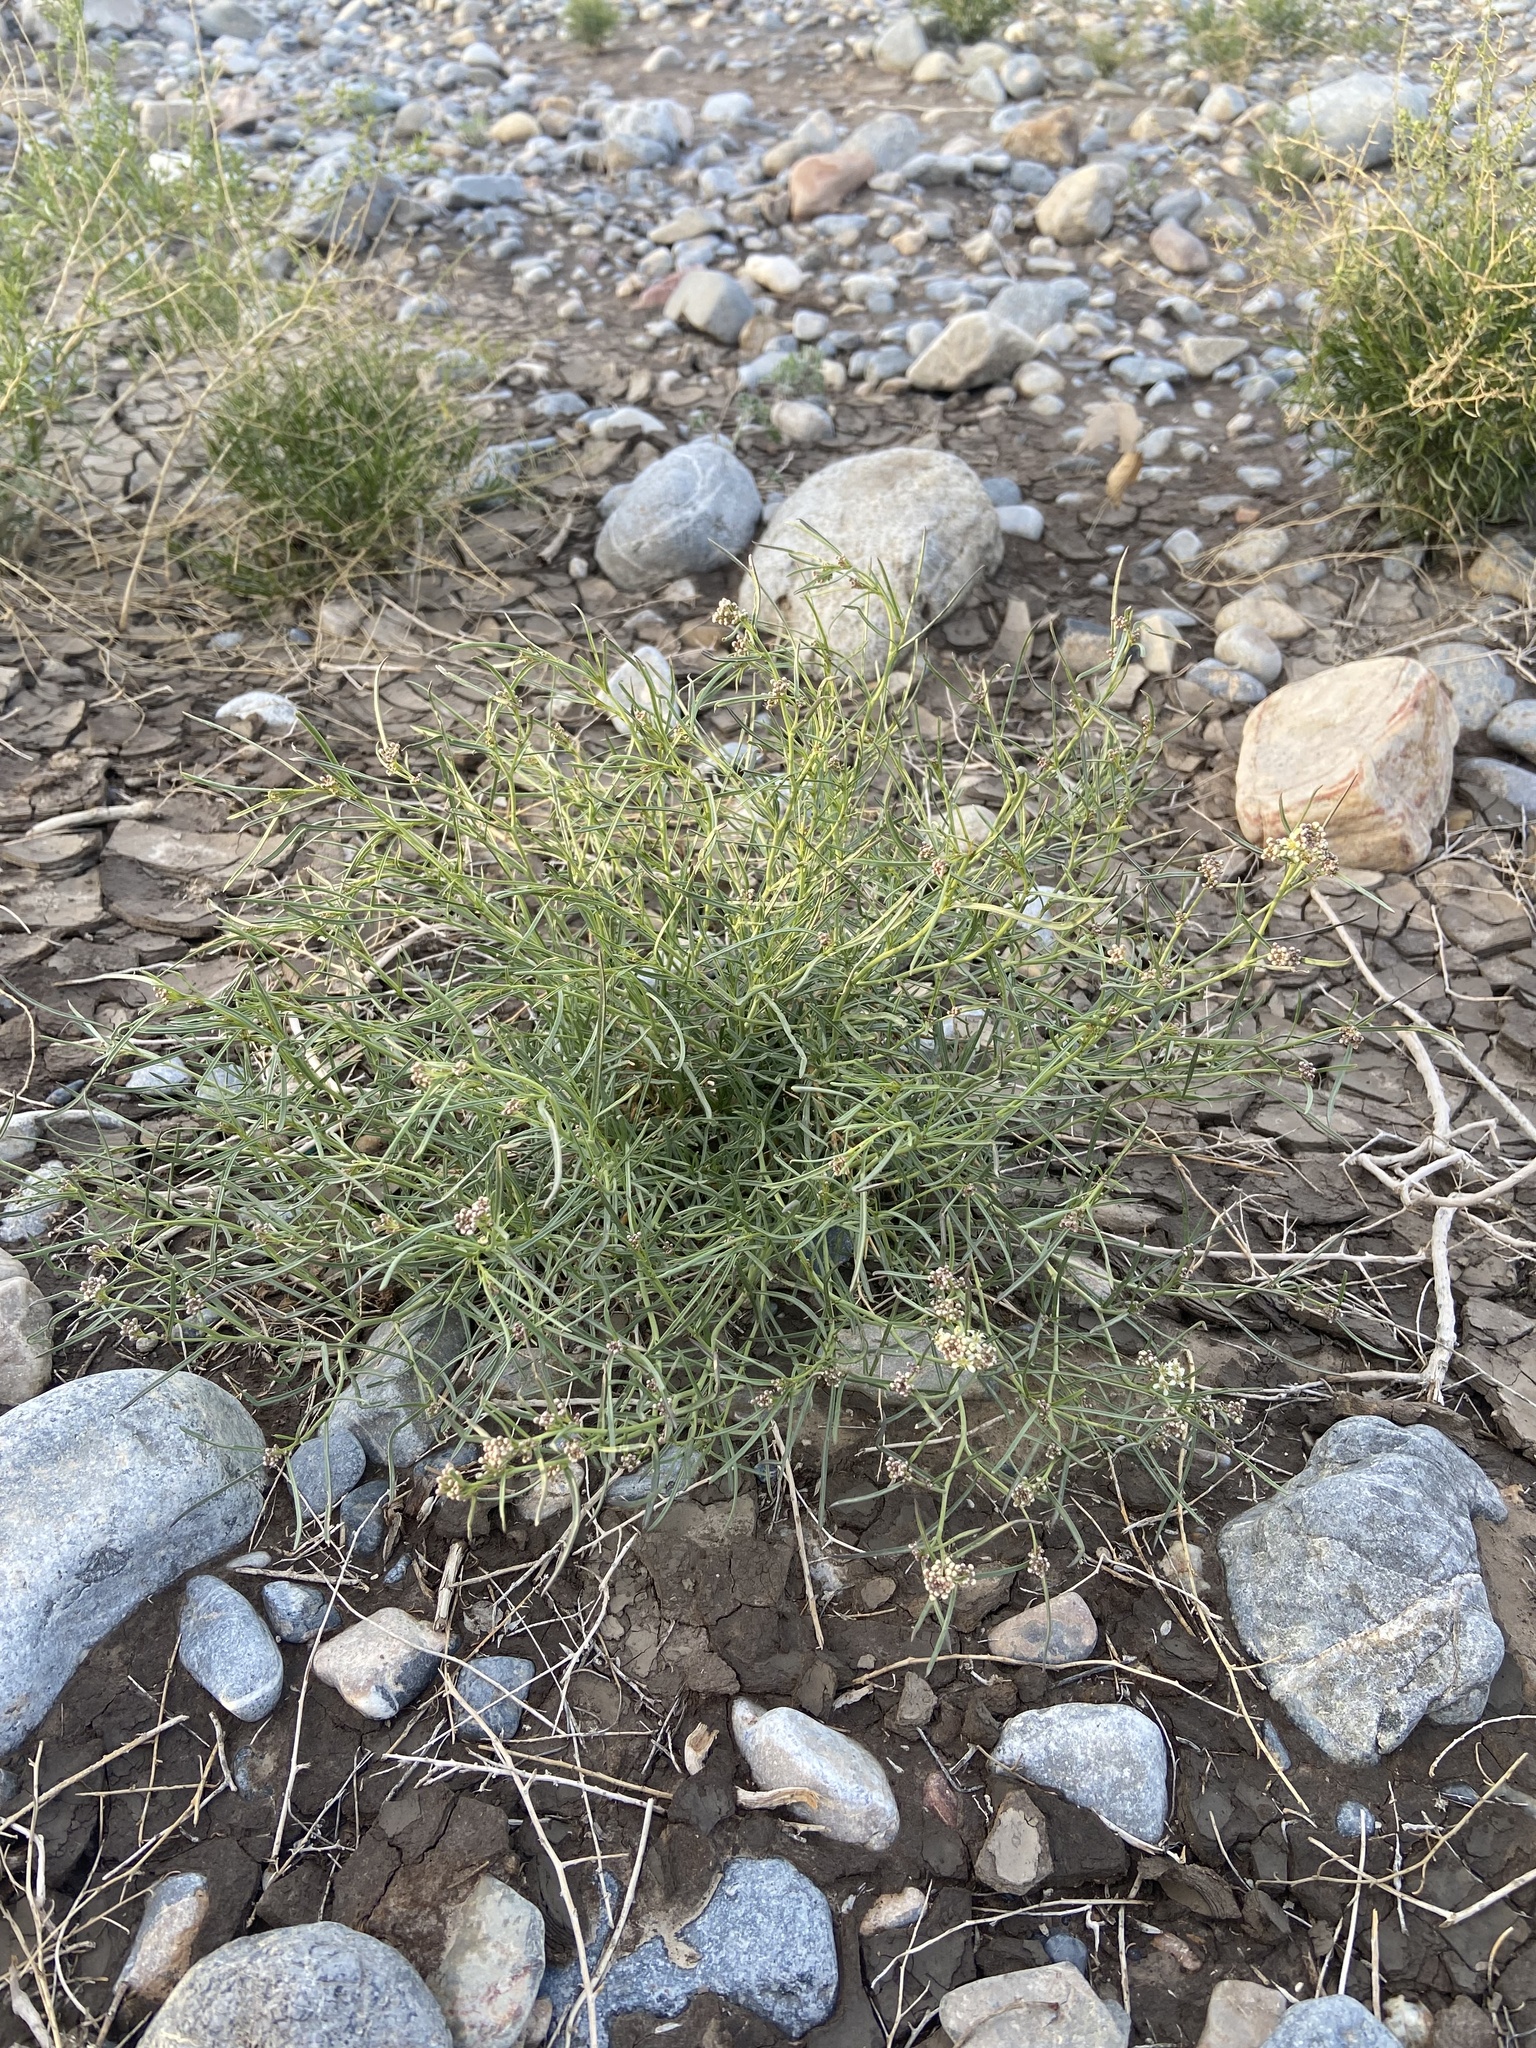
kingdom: Plantae
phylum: Tracheophyta
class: Magnoliopsida
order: Brassicales
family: Brassicaceae
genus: Lepidium
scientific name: Lepidium fremontii
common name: Fremont's pepperwort
